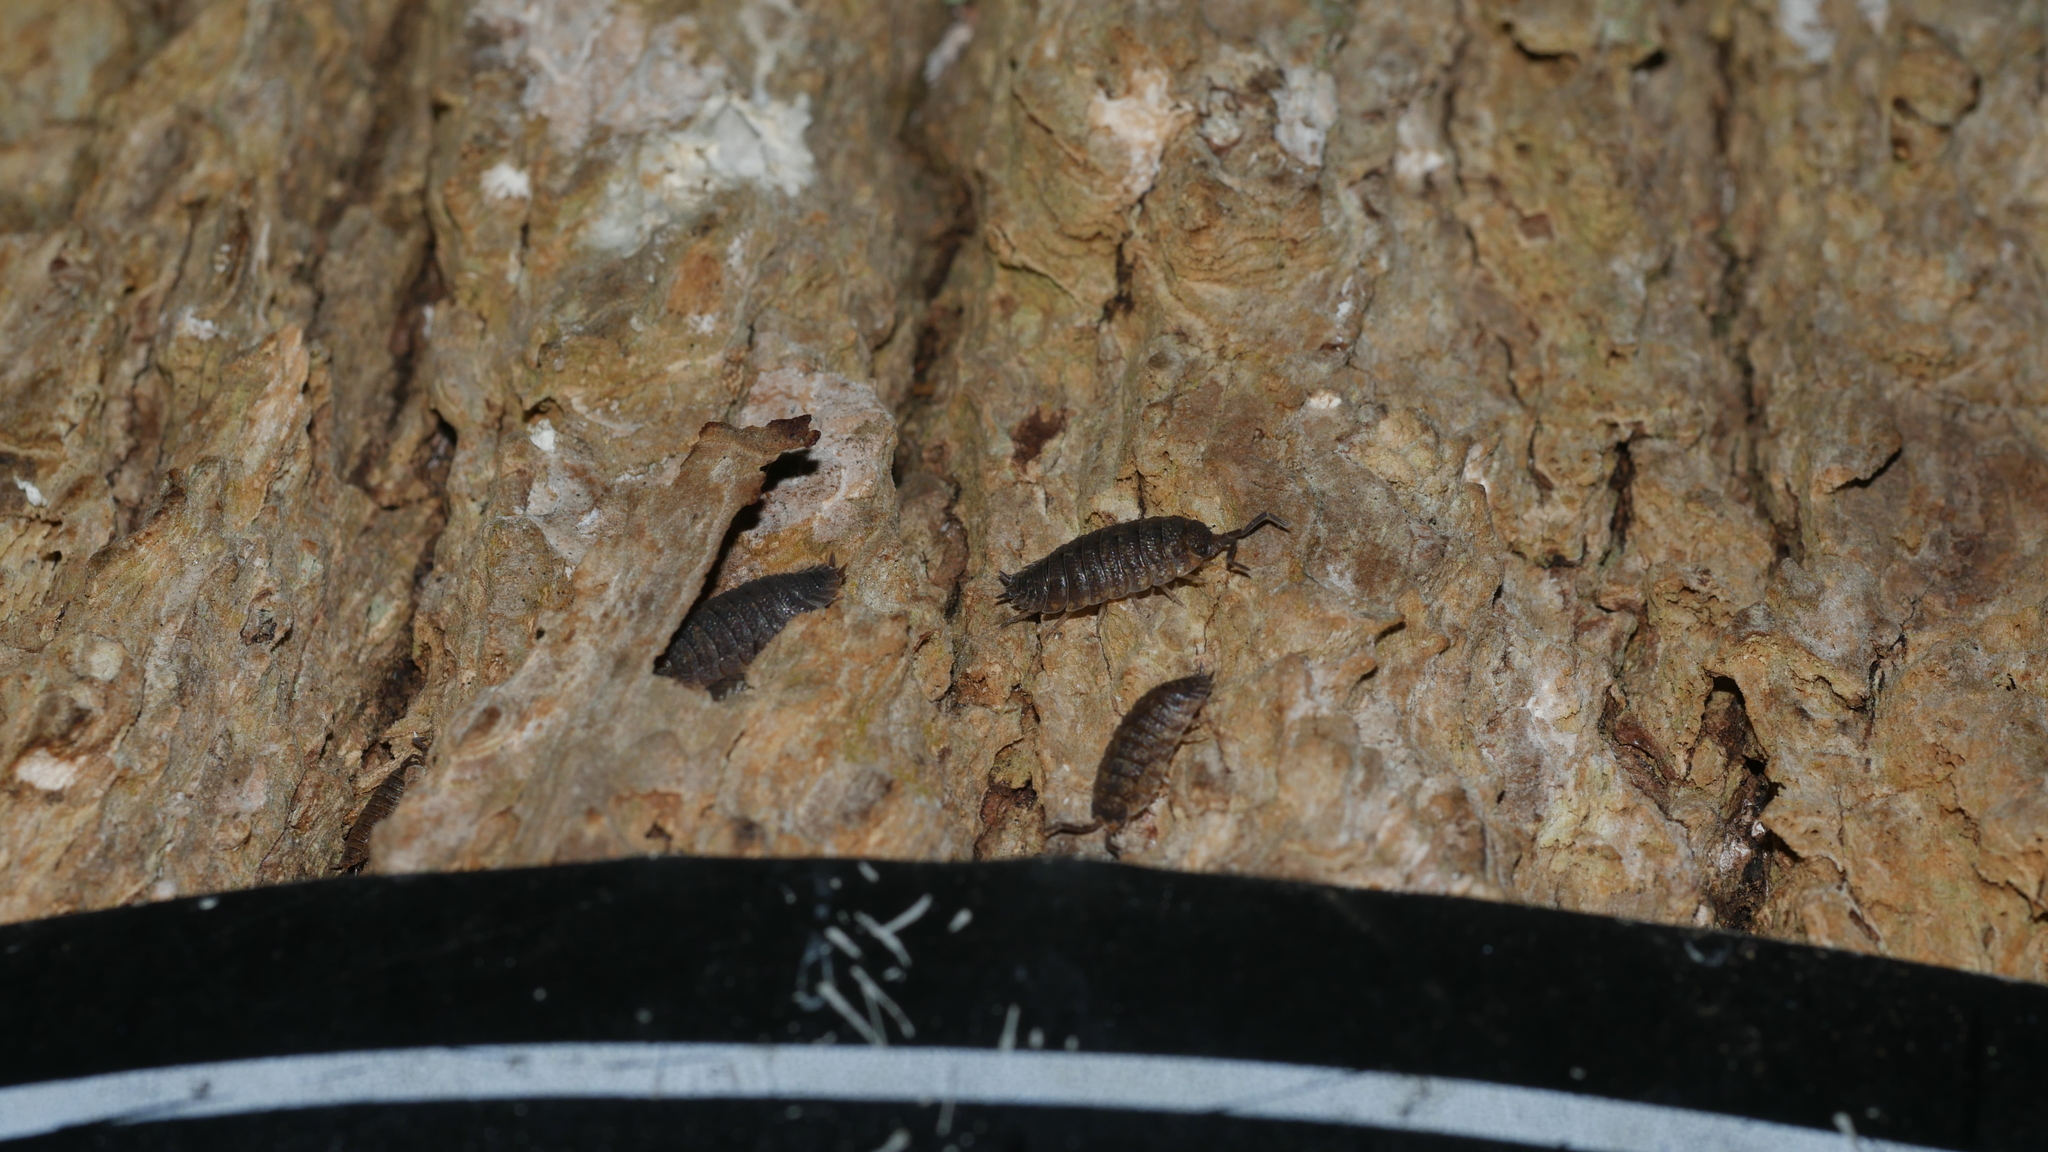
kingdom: Animalia
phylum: Arthropoda
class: Malacostraca
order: Isopoda
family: Porcellionidae
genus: Porcellio
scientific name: Porcellio scaber
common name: Common rough woodlouse
